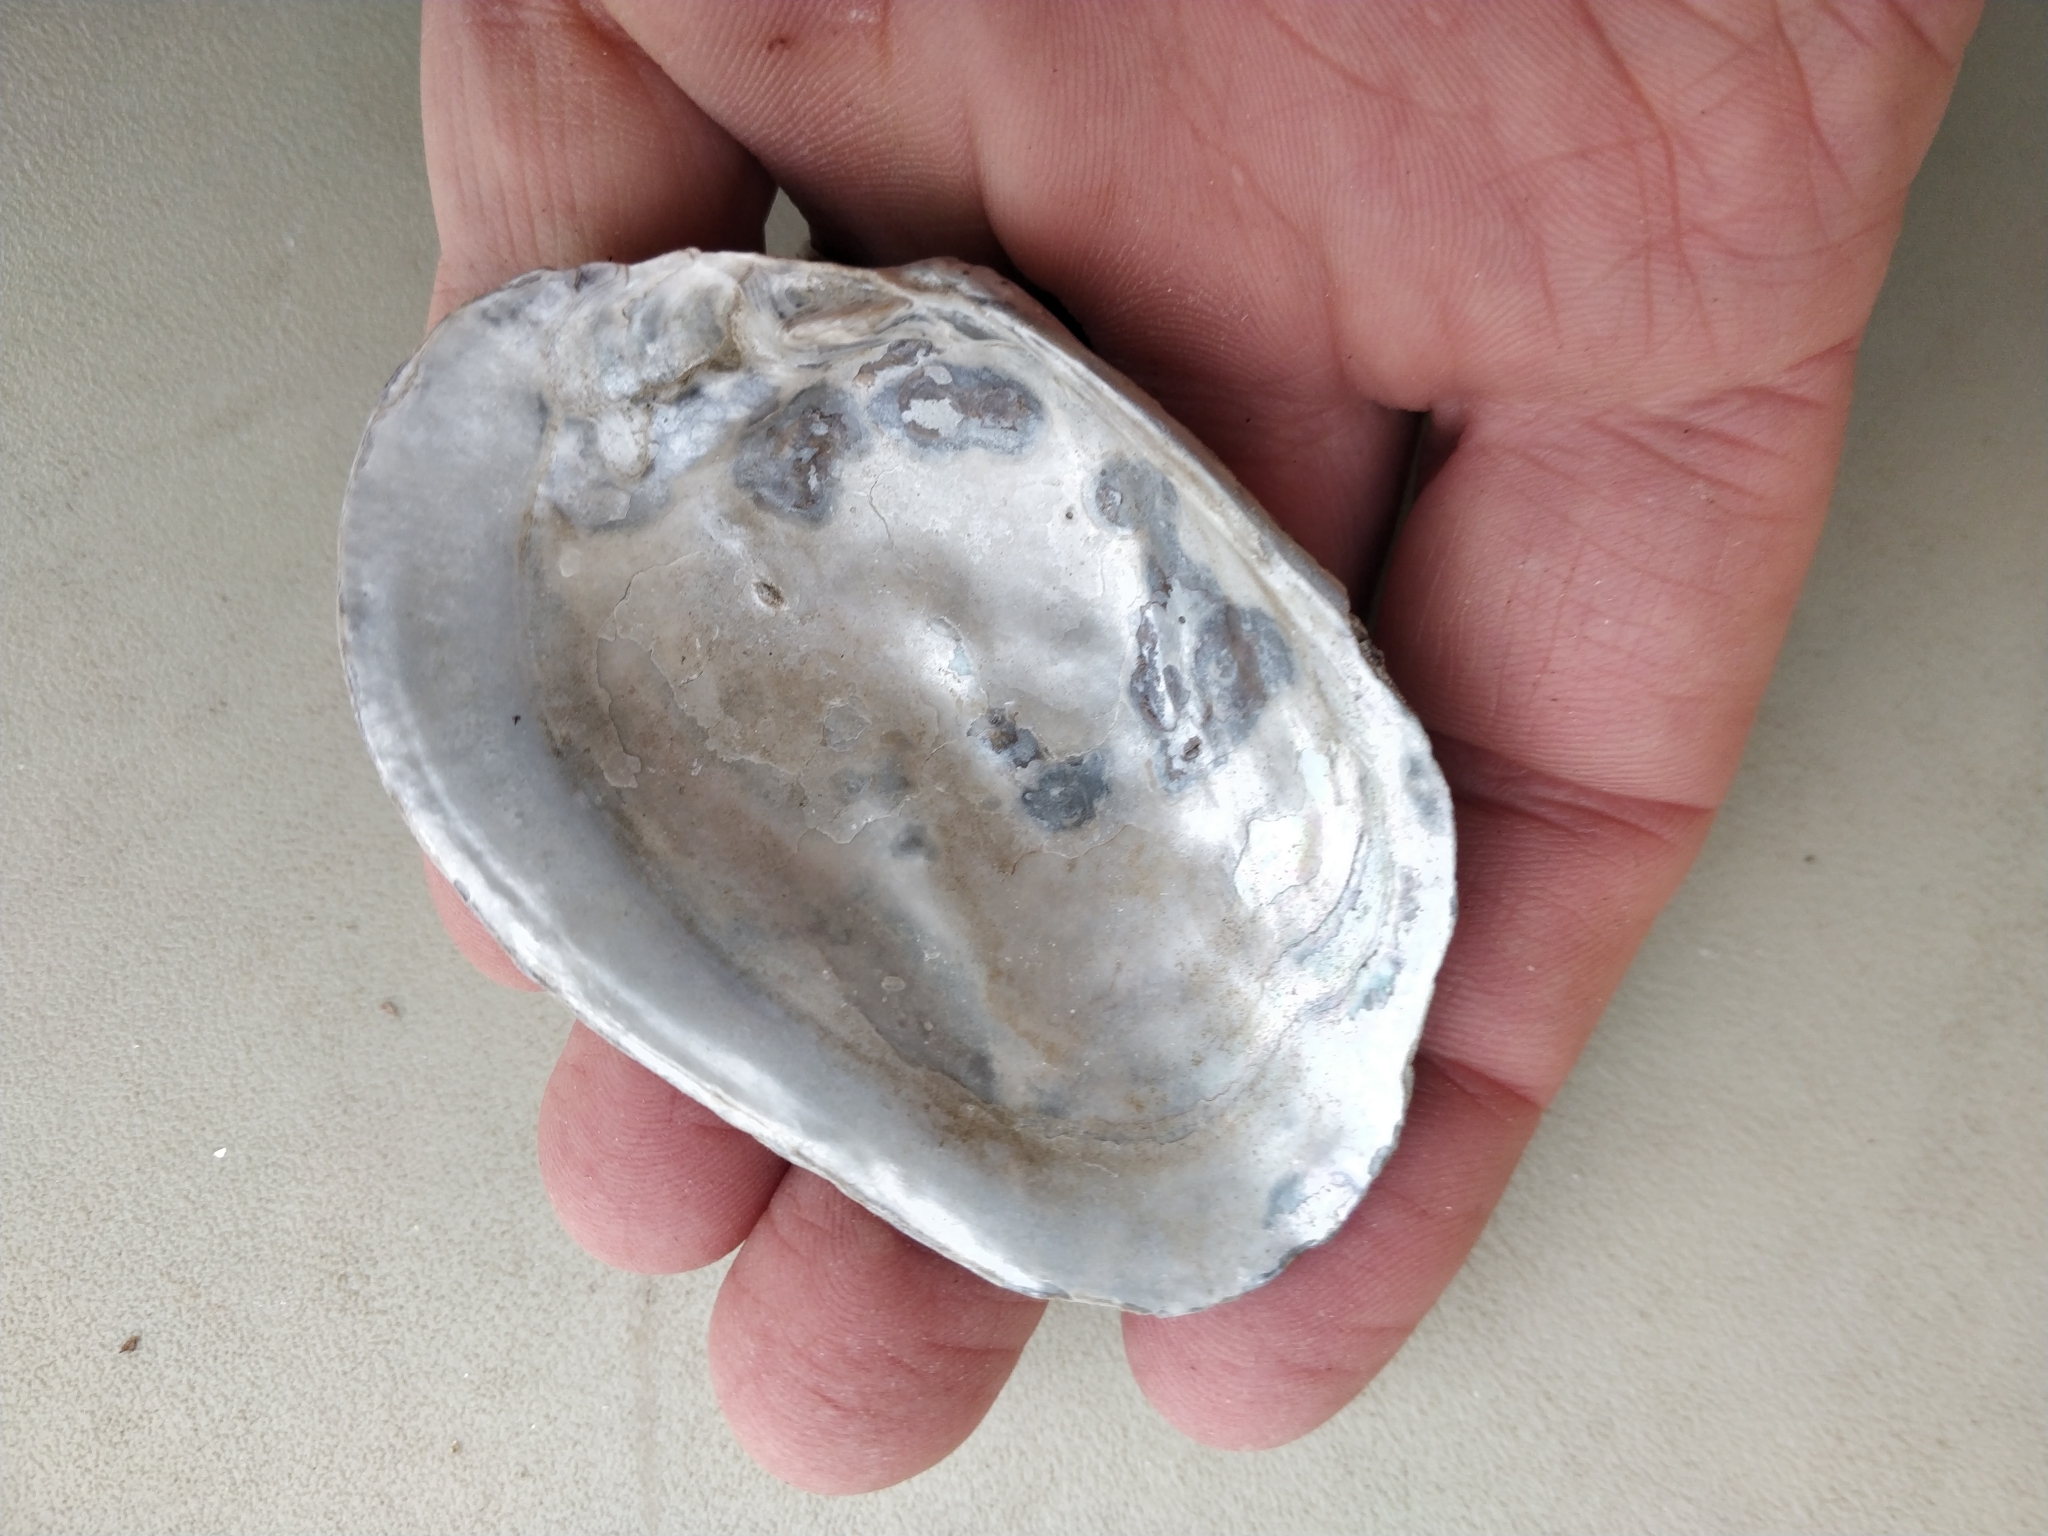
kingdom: Animalia
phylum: Mollusca
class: Bivalvia
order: Unionida
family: Unionidae
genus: Arcidens
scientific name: Arcidens confragosus
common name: Rock pocketbook
